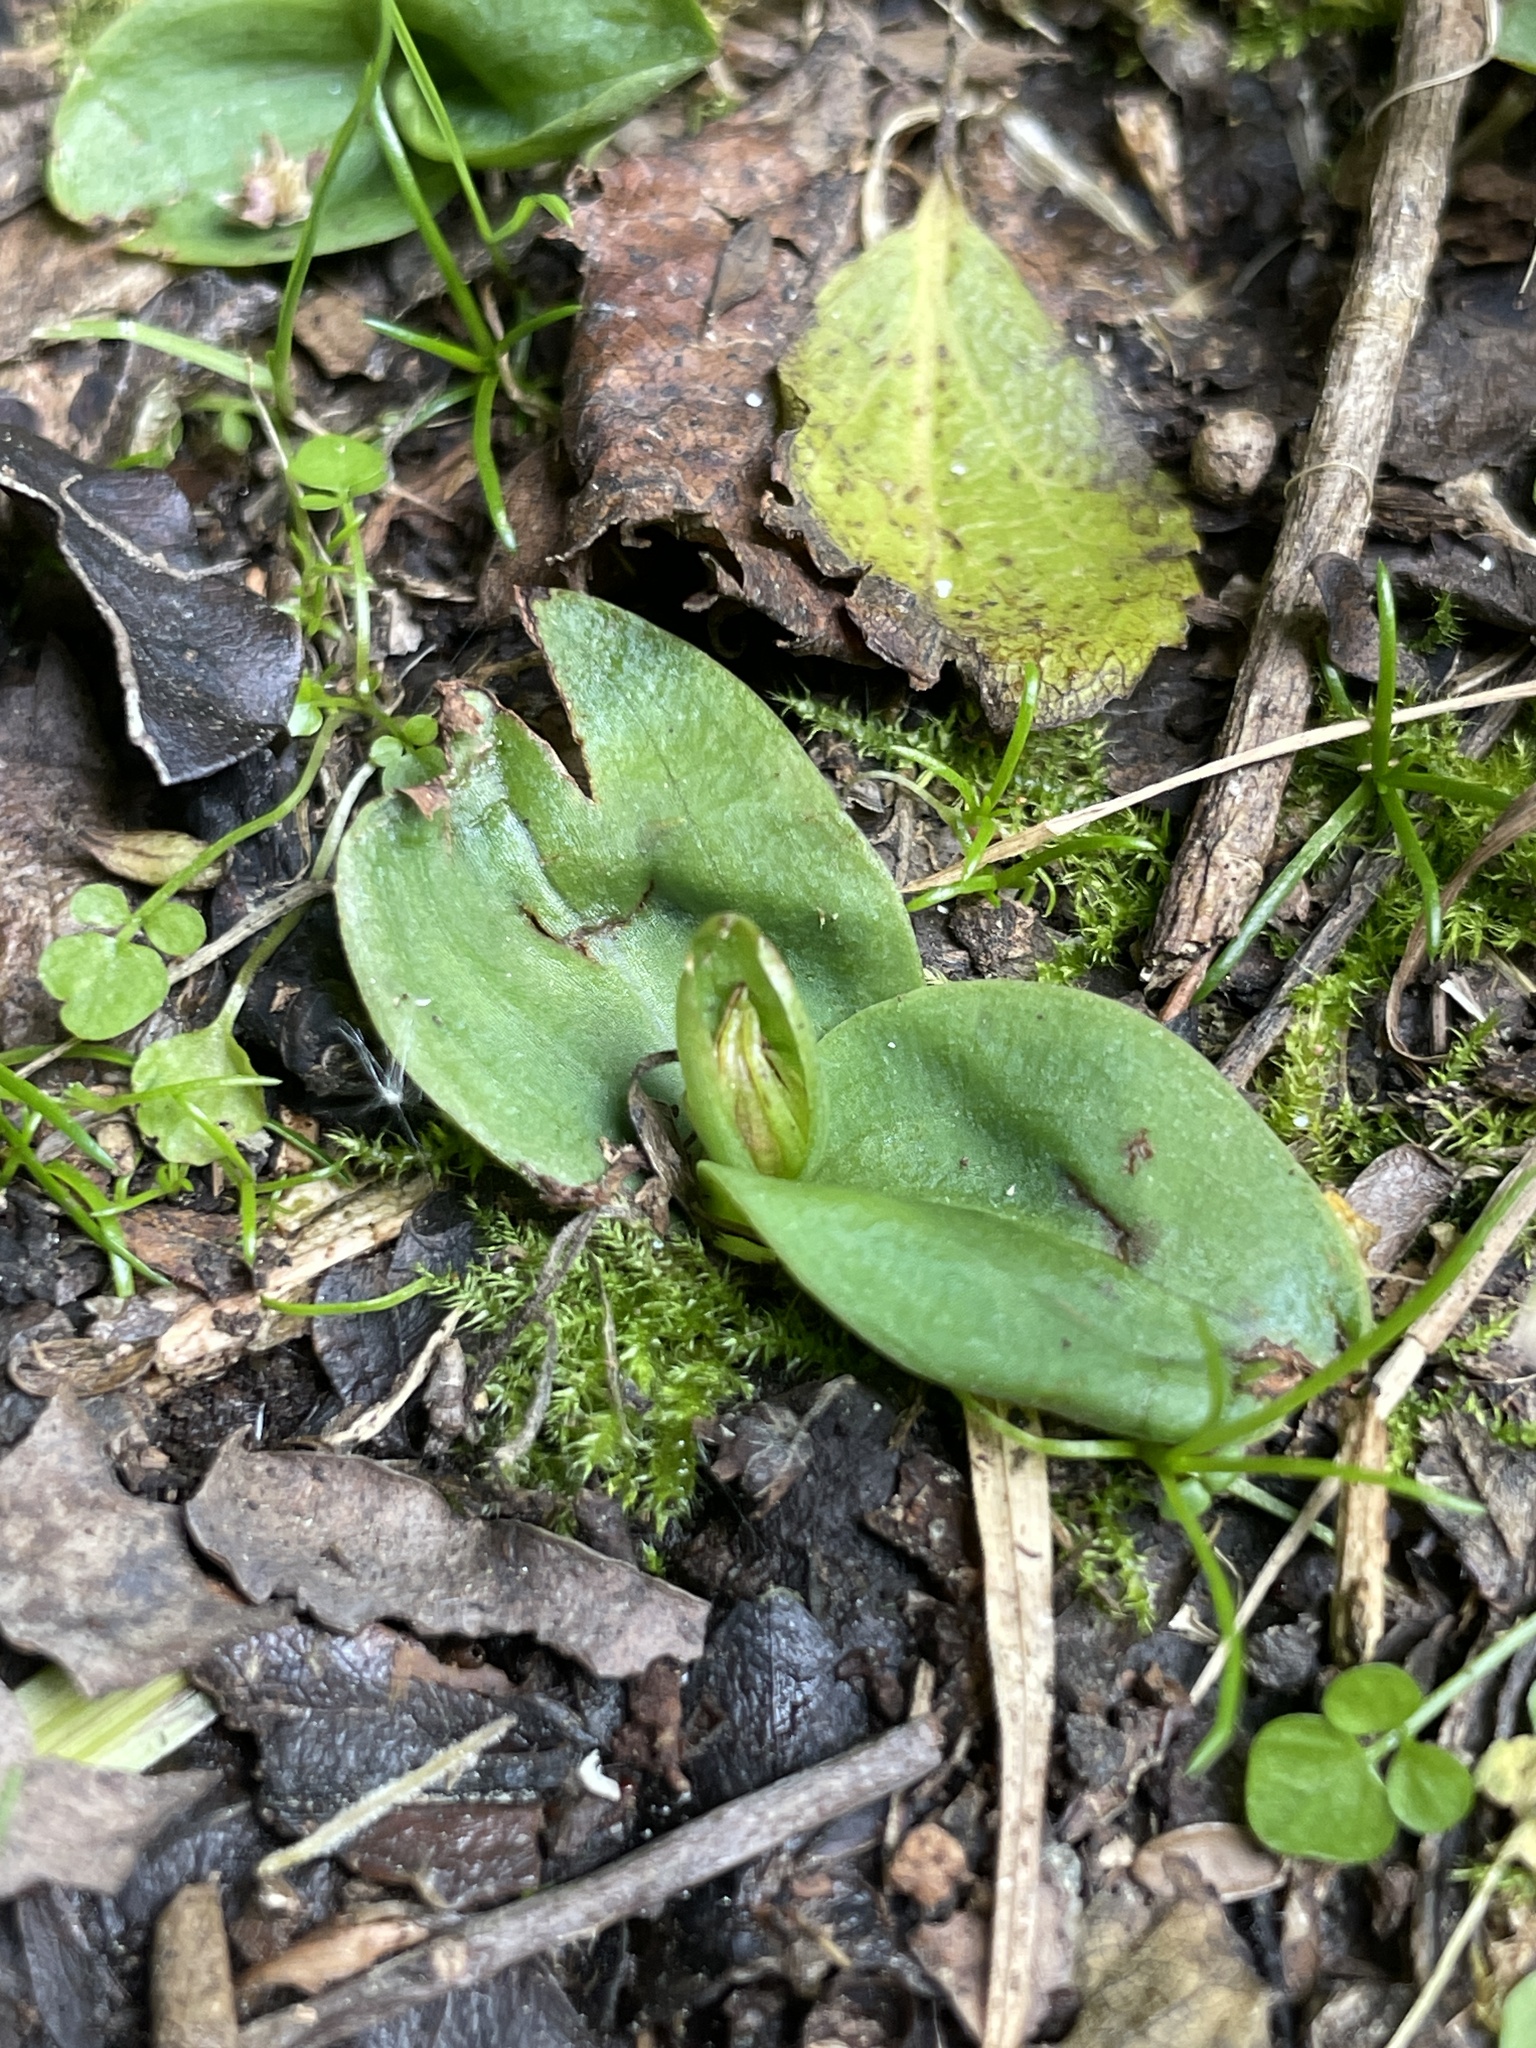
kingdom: Plantae
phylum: Tracheophyta
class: Liliopsida
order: Asparagales
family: Orchidaceae
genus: Chiloglottis
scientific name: Chiloglottis cornuta
